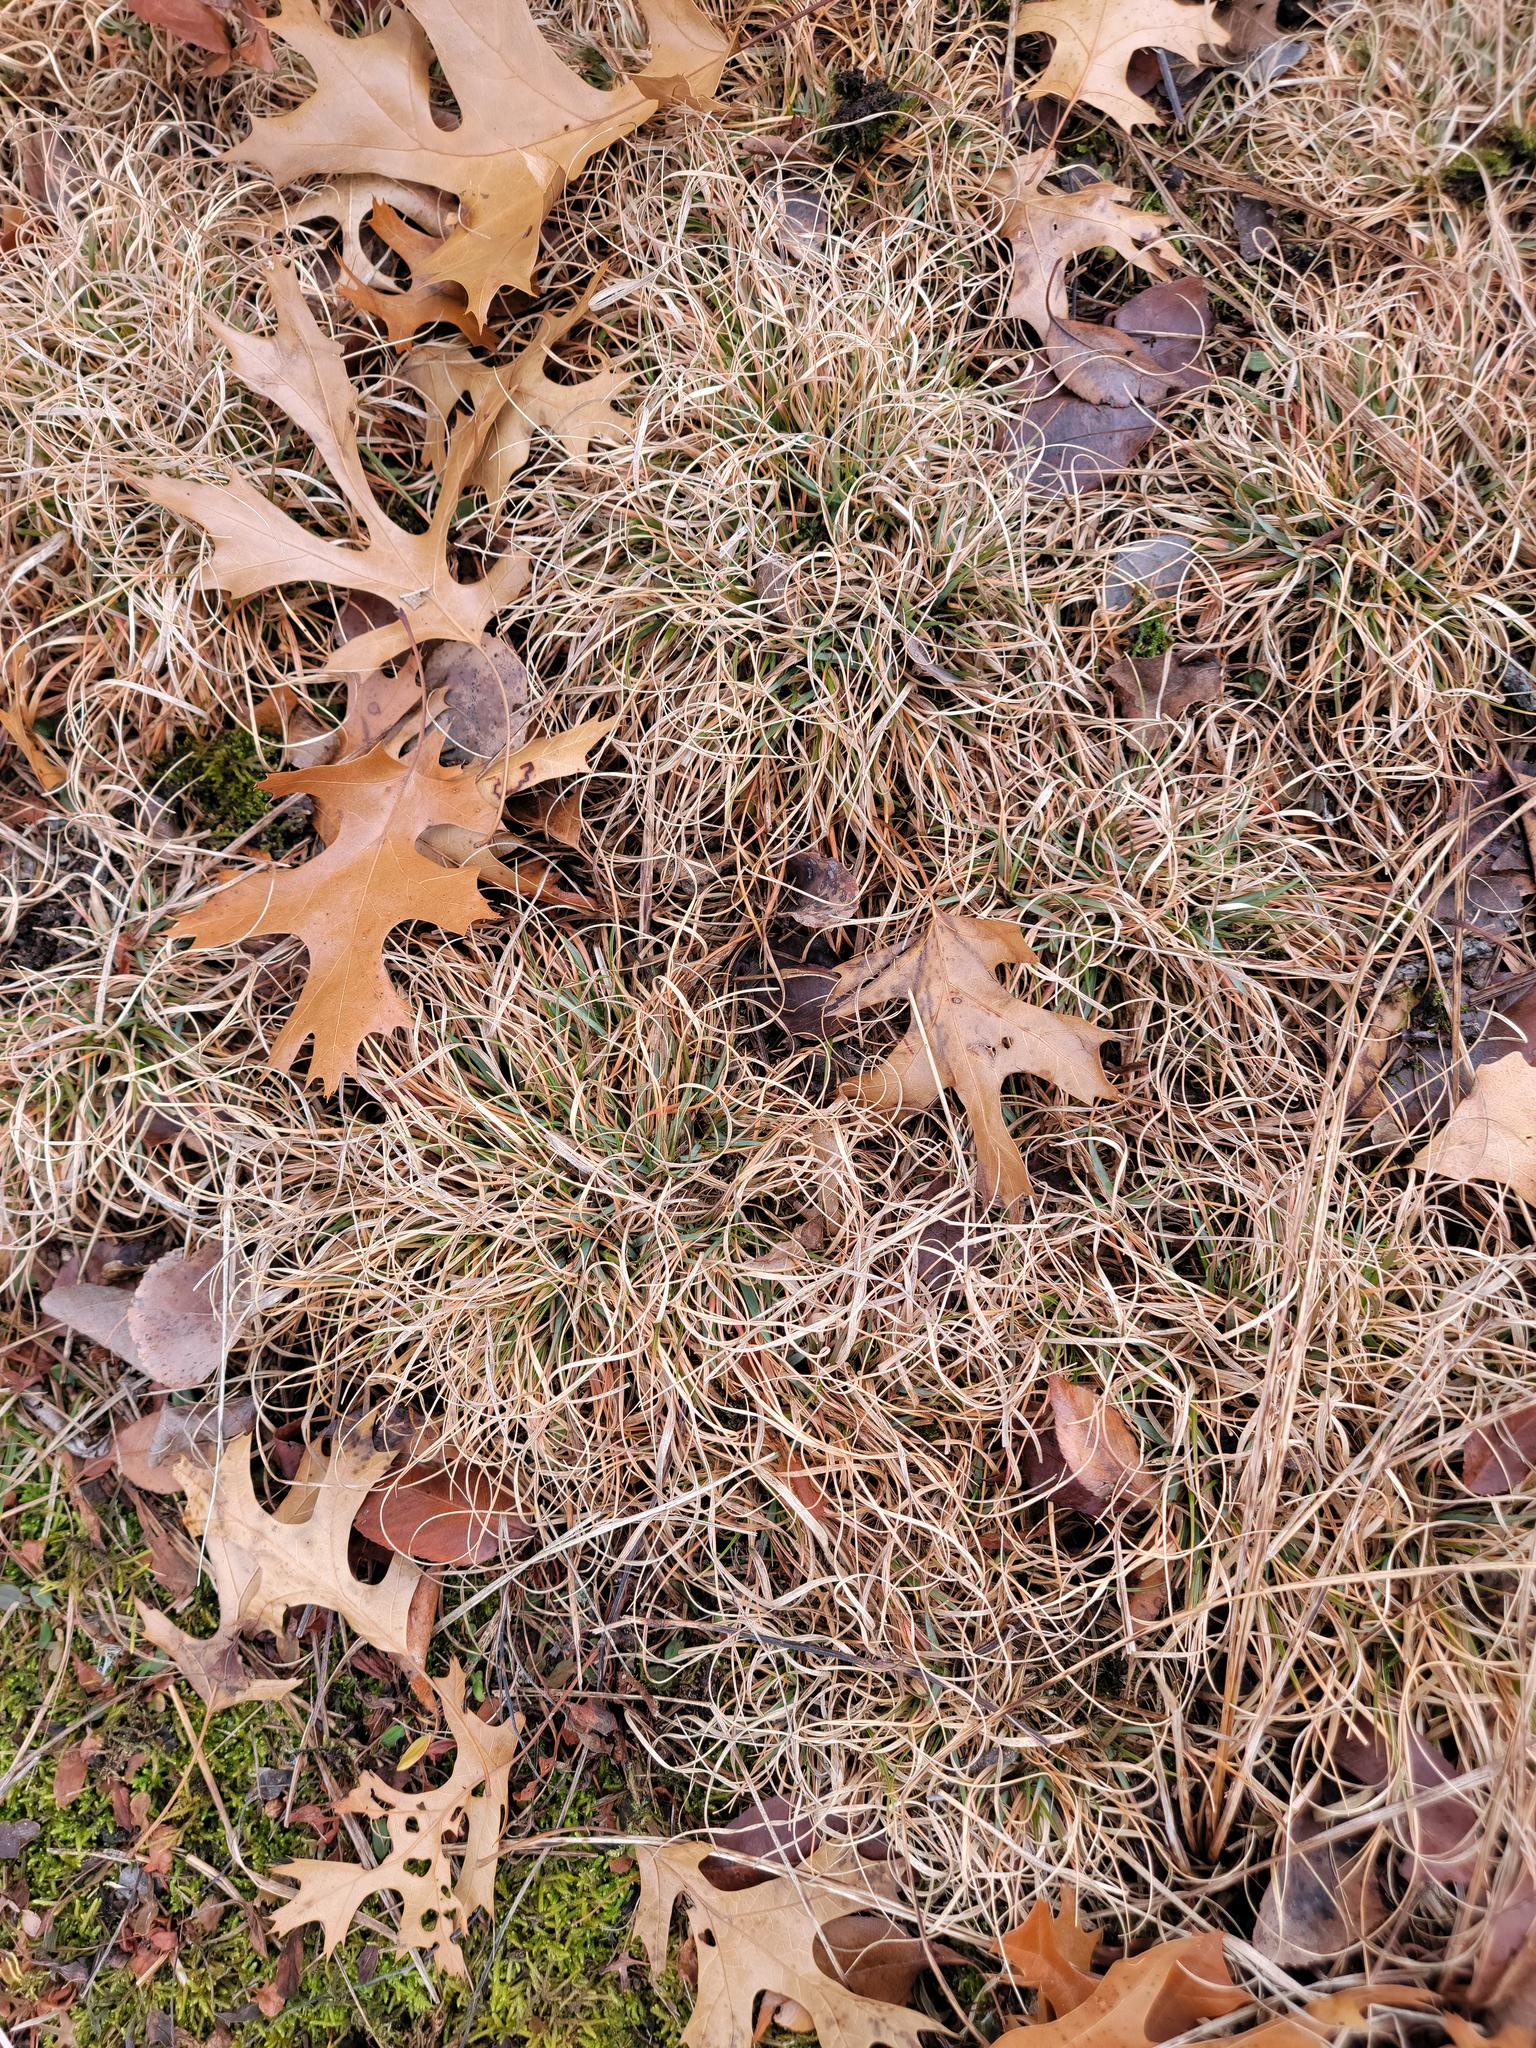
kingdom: Plantae
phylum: Tracheophyta
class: Liliopsida
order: Poales
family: Poaceae
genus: Danthonia
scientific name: Danthonia spicata
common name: Common wild oatgrass
